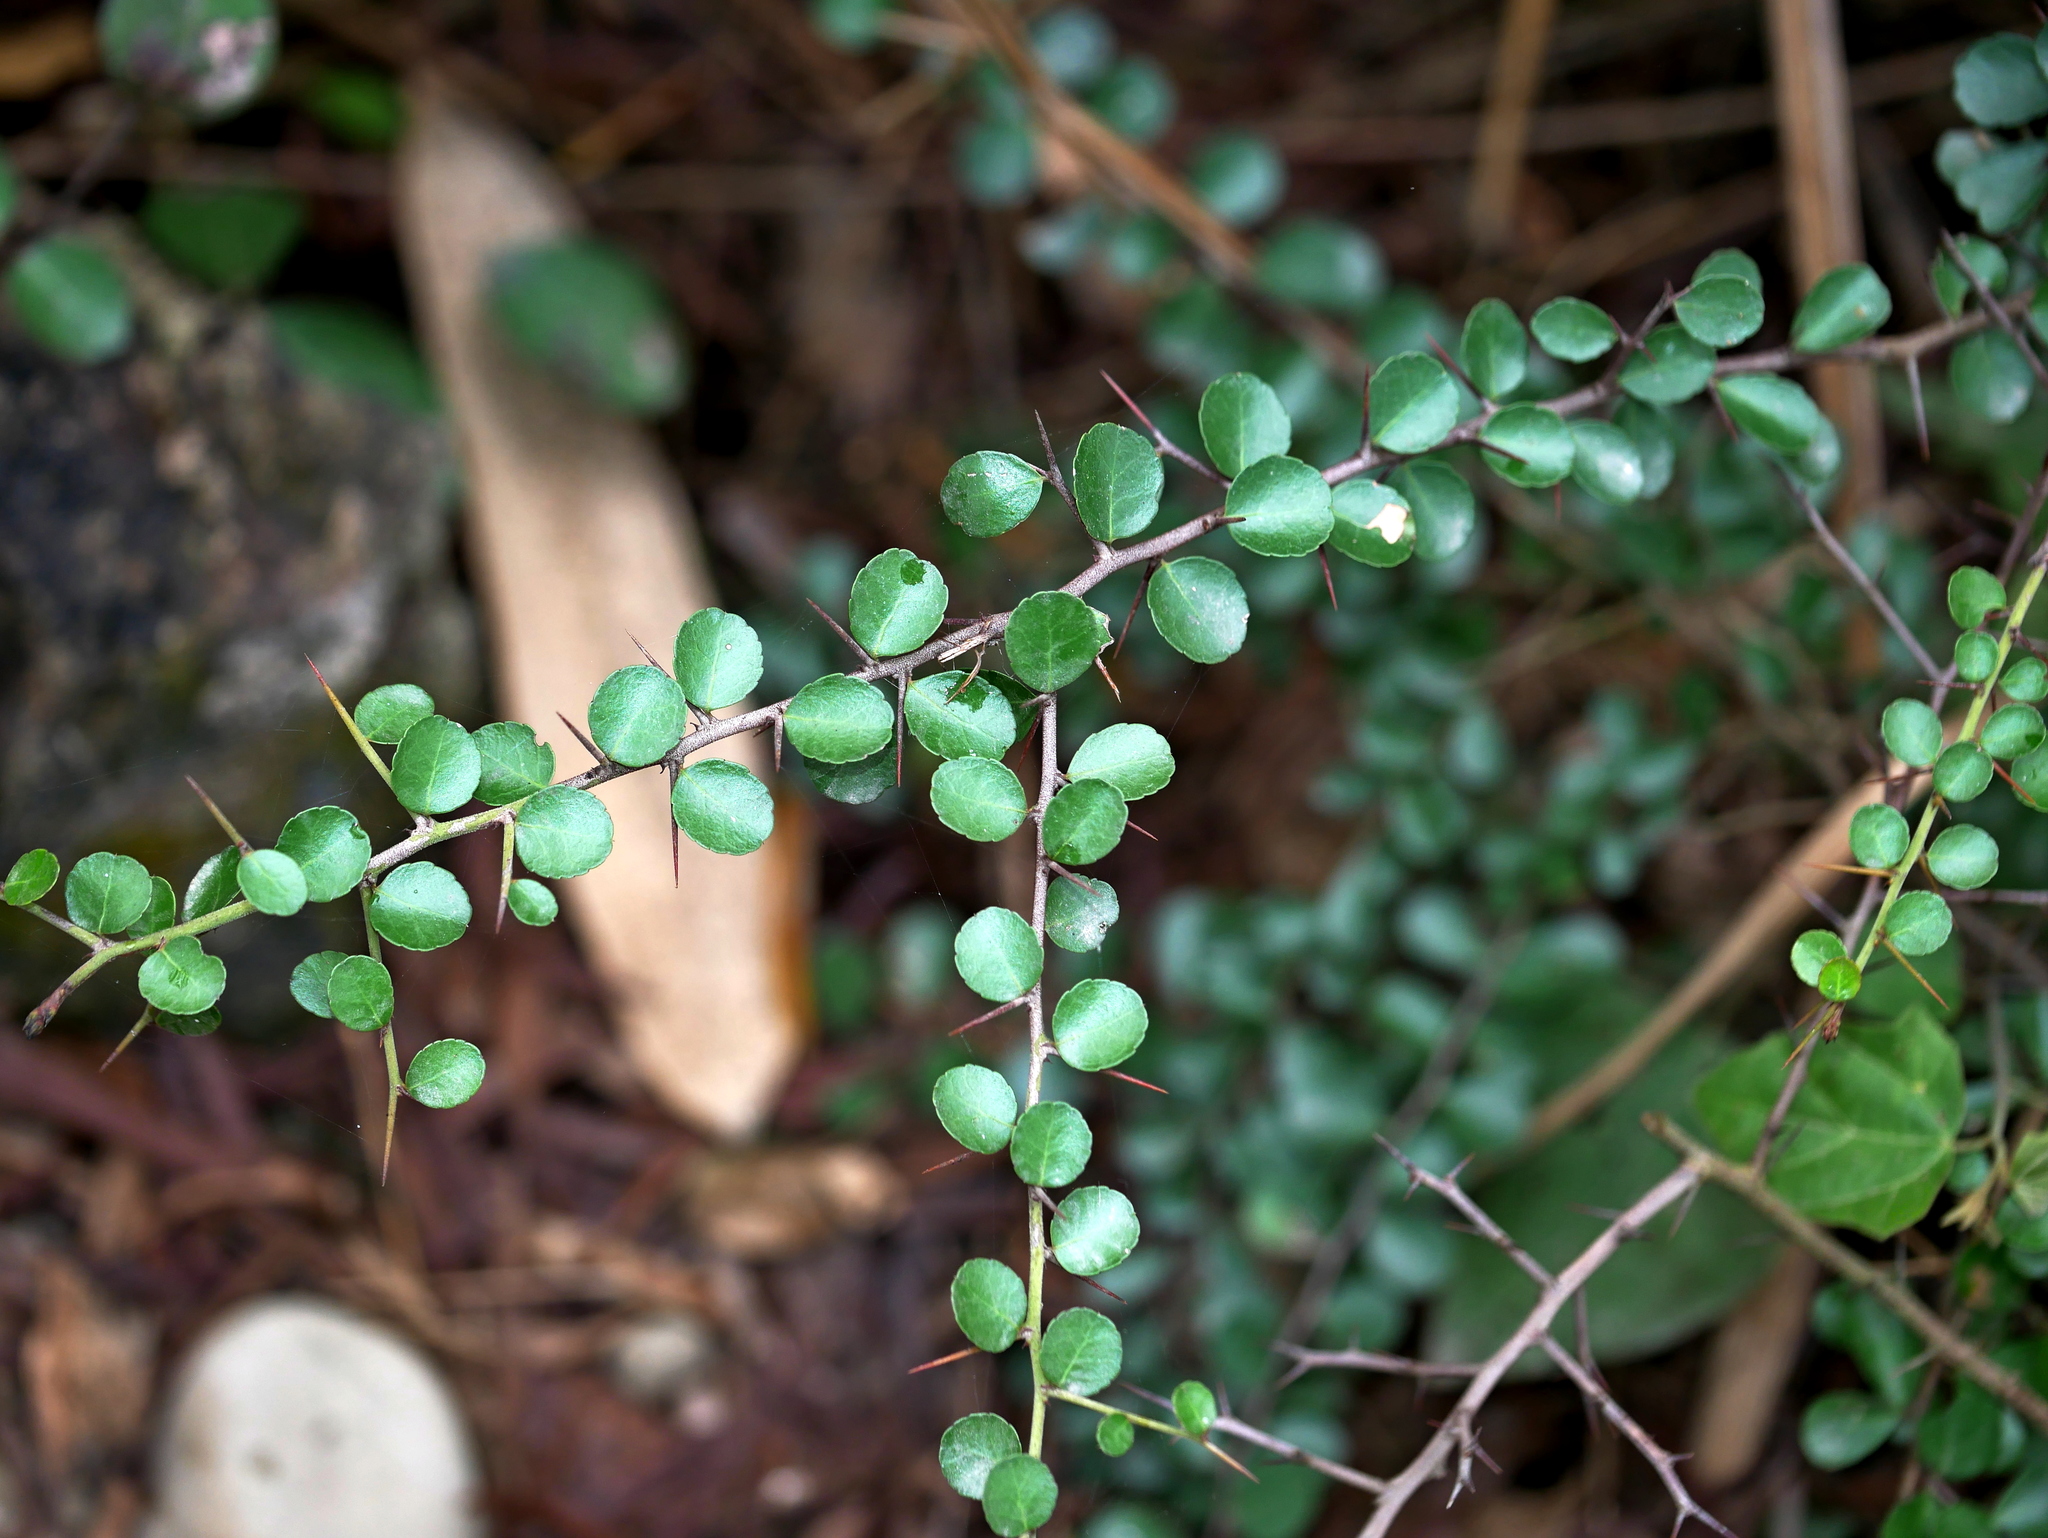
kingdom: Plantae
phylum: Tracheophyta
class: Magnoliopsida
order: Celastrales
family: Celastraceae
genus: Gymnosporia
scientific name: Gymnosporia diversifolia
